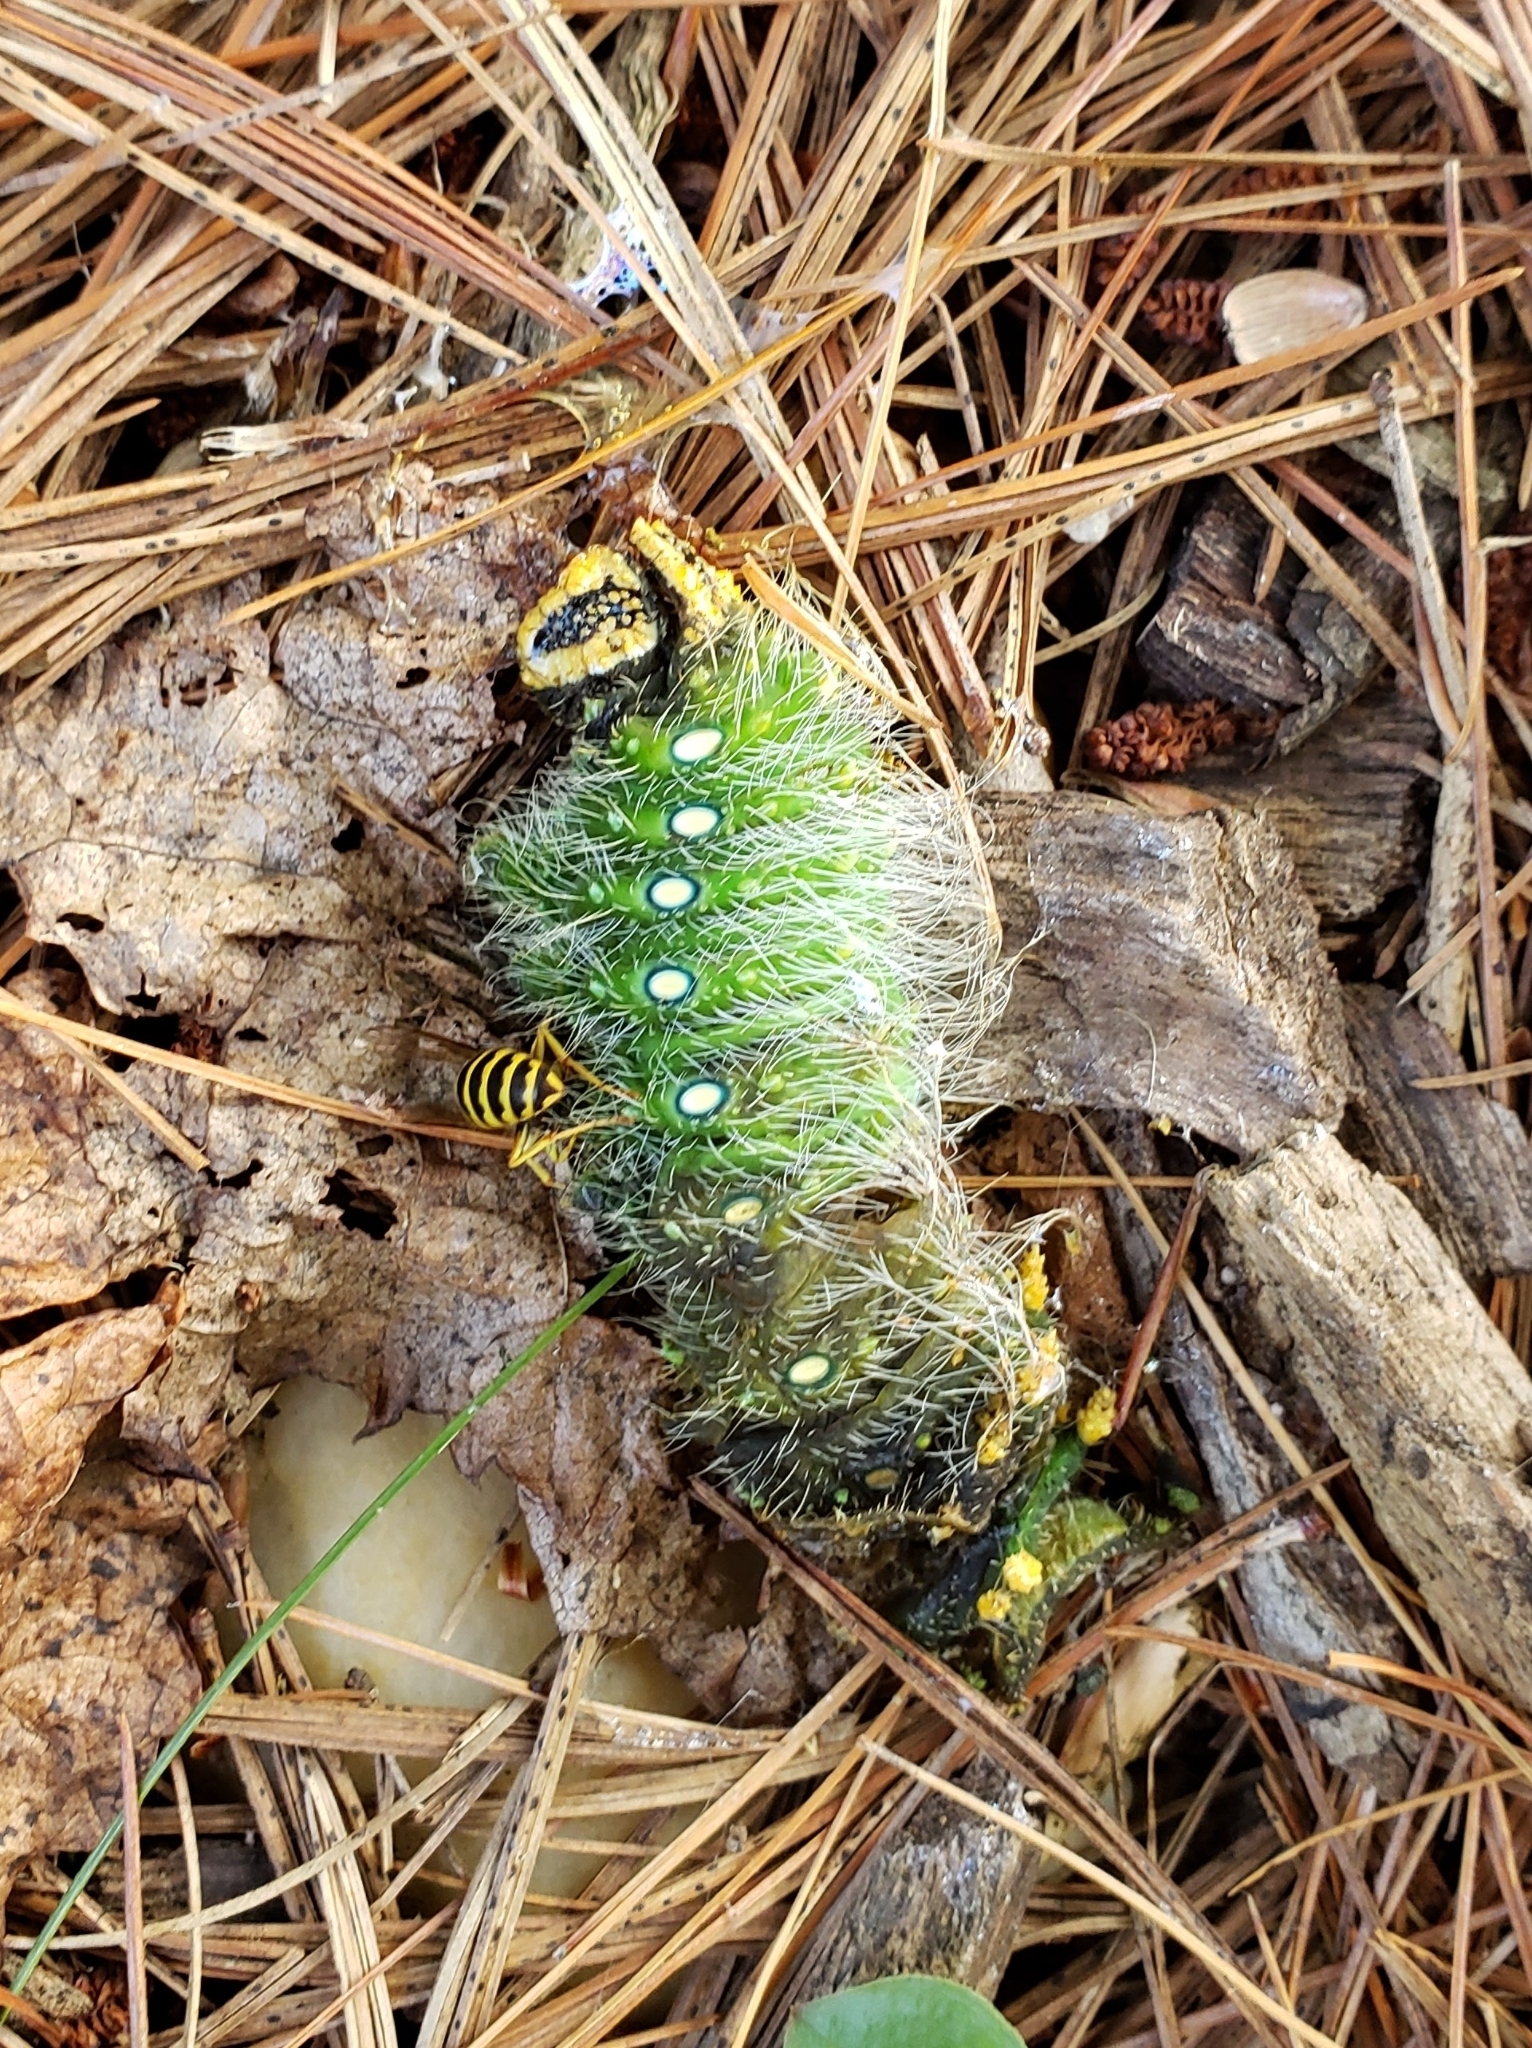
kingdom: Animalia
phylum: Arthropoda
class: Insecta
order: Lepidoptera
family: Saturniidae
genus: Eacles
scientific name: Eacles imperialis
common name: Imperial moth
